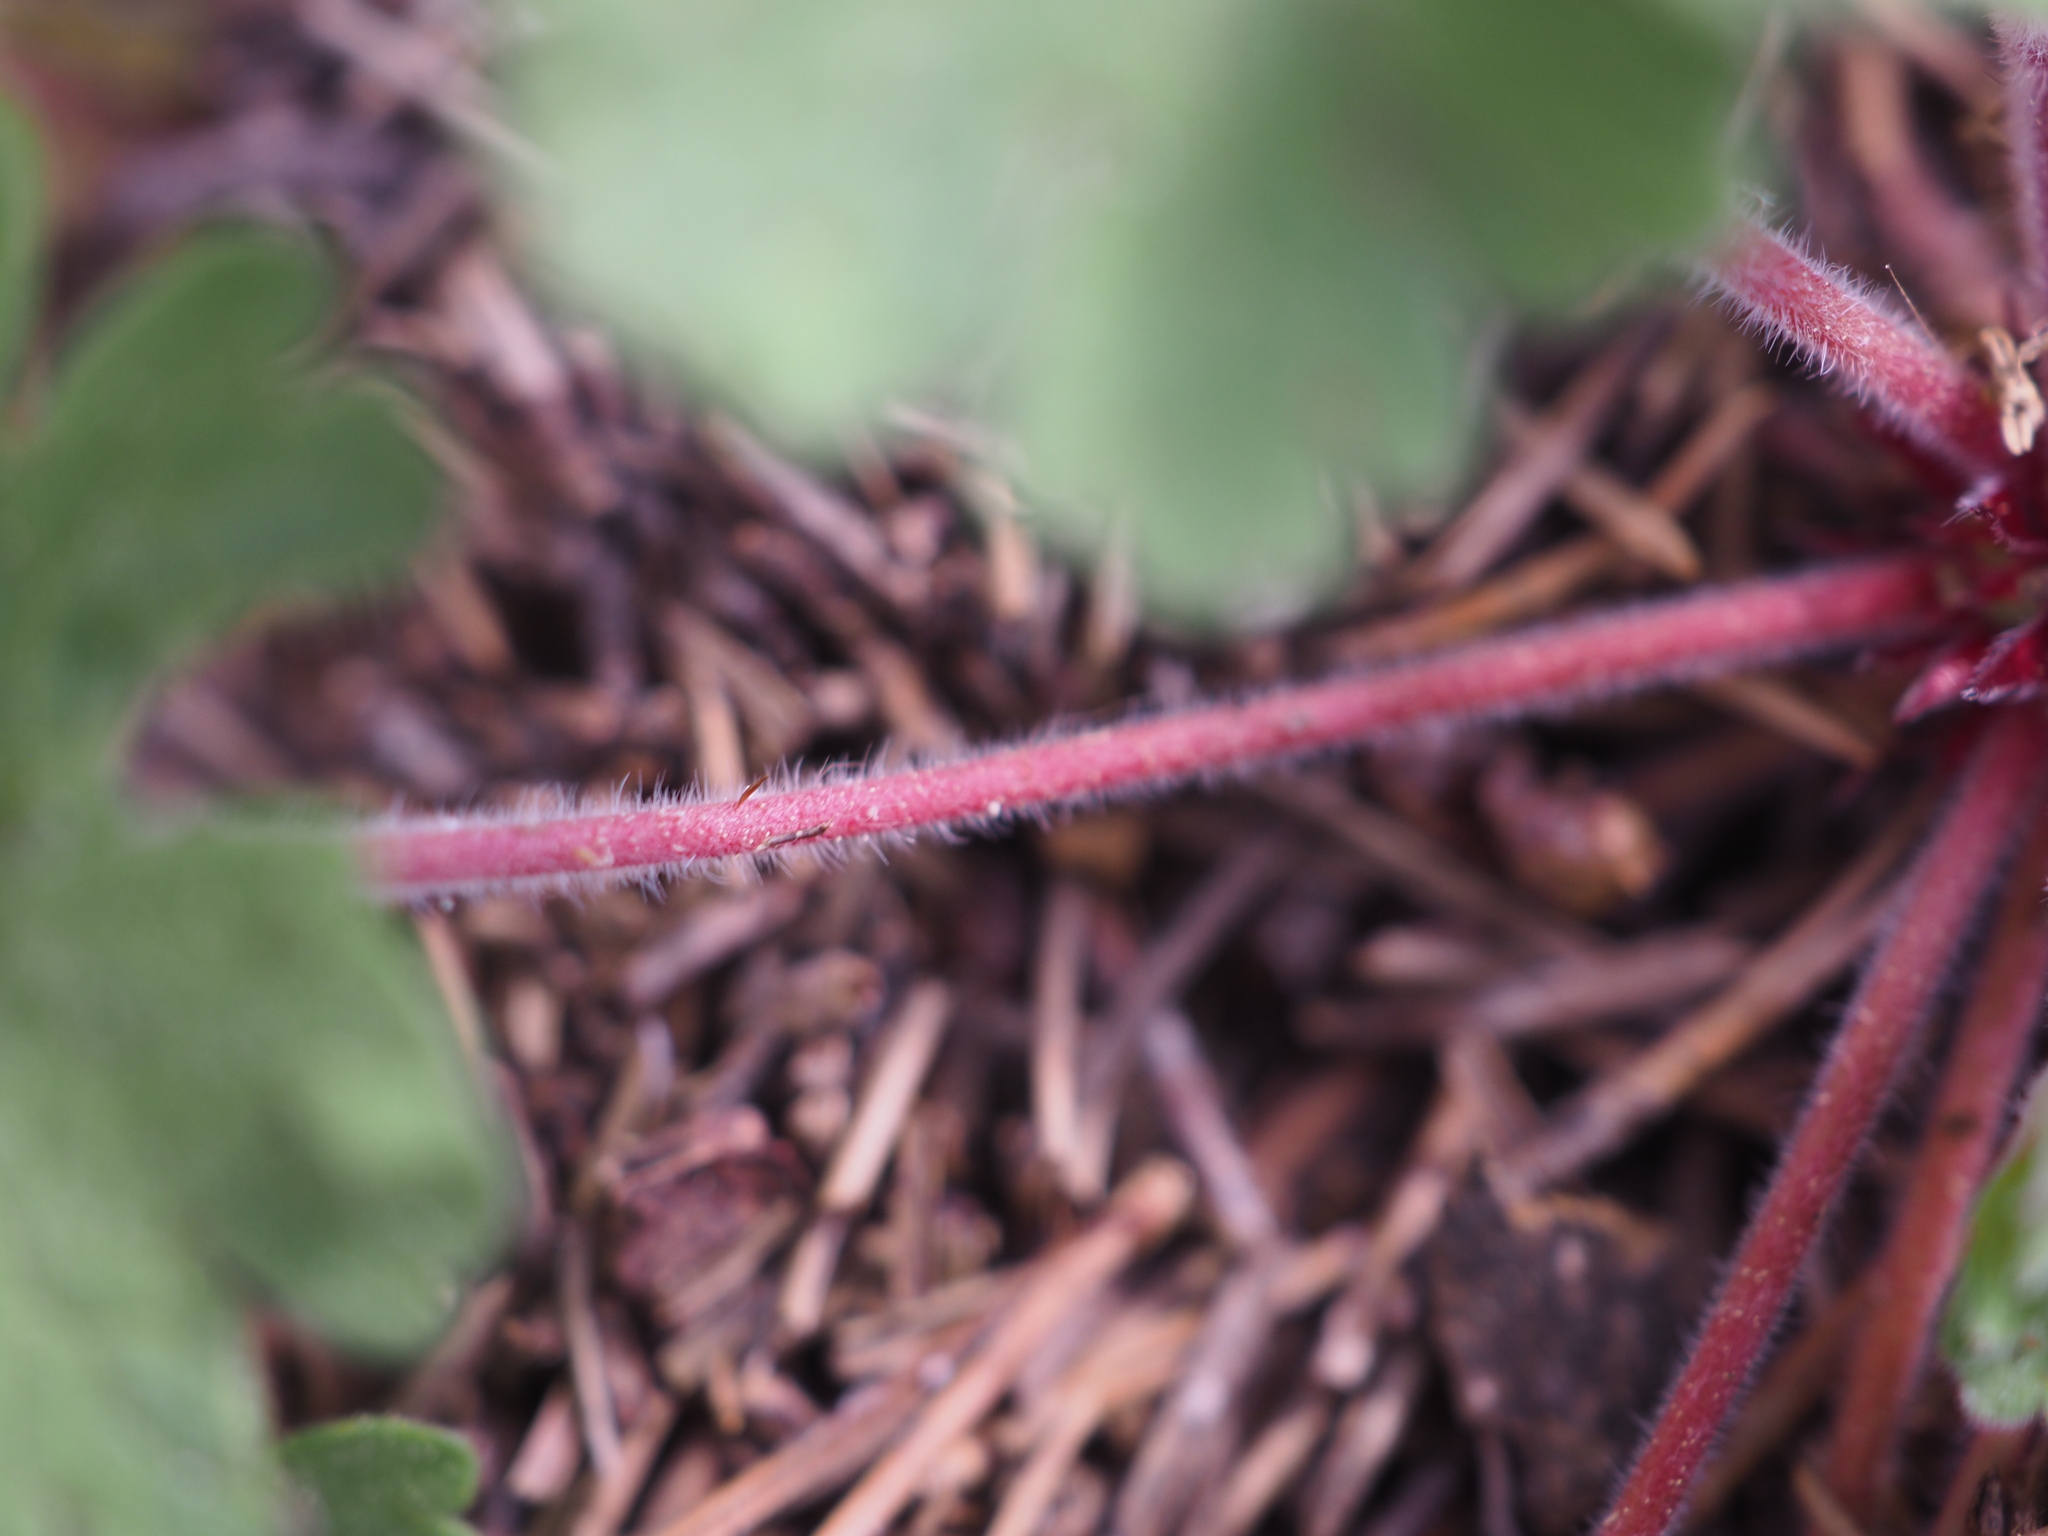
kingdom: Plantae
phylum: Tracheophyta
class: Magnoliopsida
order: Geraniales
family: Geraniaceae
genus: Geranium
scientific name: Geranium rotundifolium
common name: Round-leaved crane's-bill
